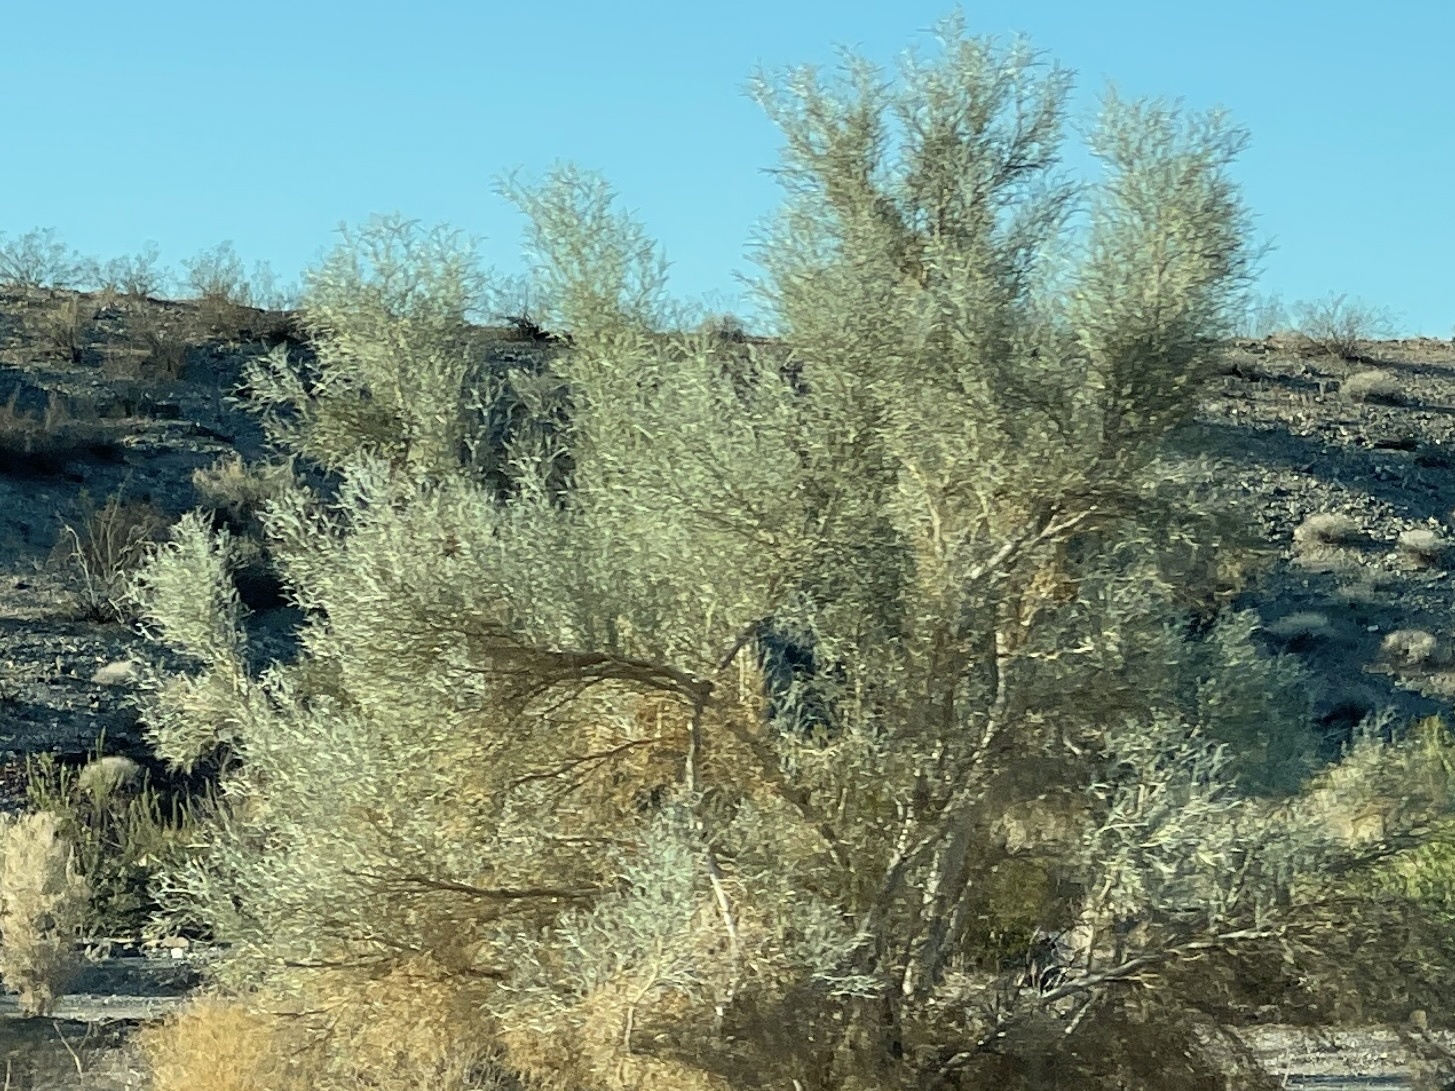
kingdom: Plantae
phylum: Tracheophyta
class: Magnoliopsida
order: Fabales
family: Fabaceae
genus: Psorothamnus
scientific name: Psorothamnus spinosus
